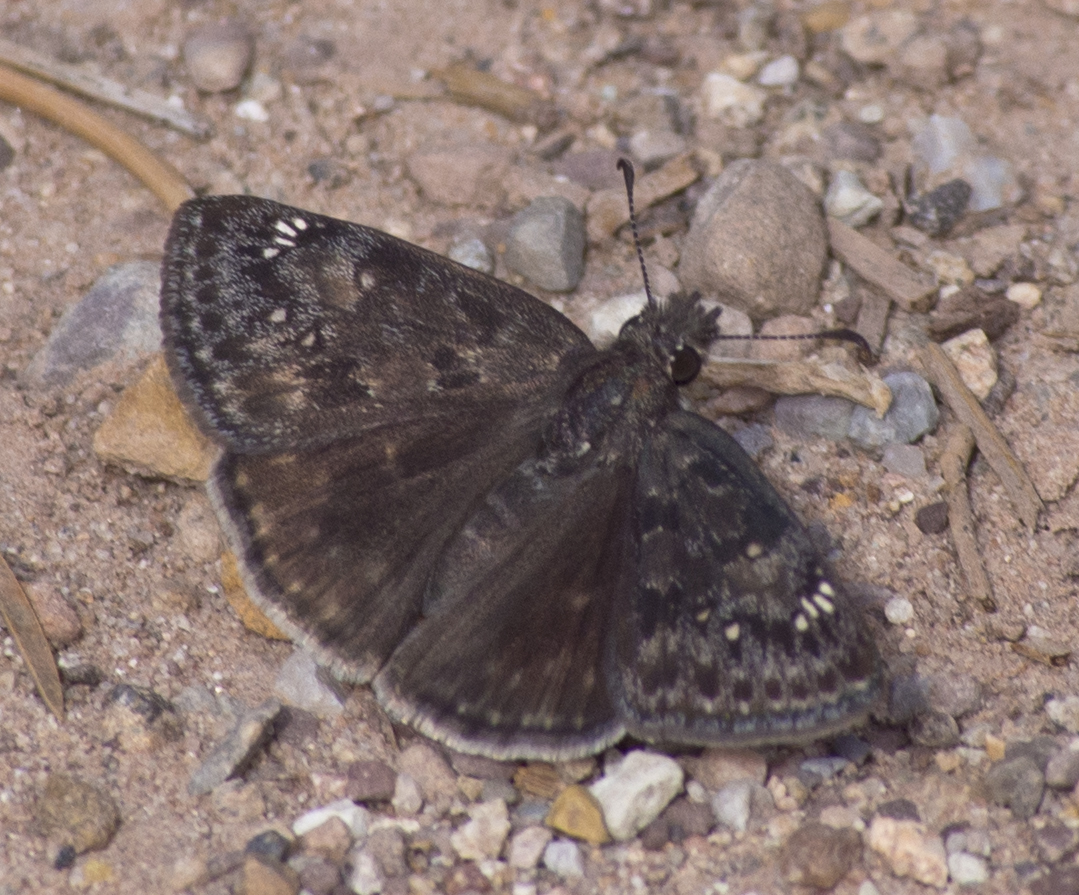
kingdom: Animalia
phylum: Arthropoda
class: Insecta
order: Lepidoptera
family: Hesperiidae
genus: Erynnis
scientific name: Erynnis afranius
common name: Afranius duskywing
